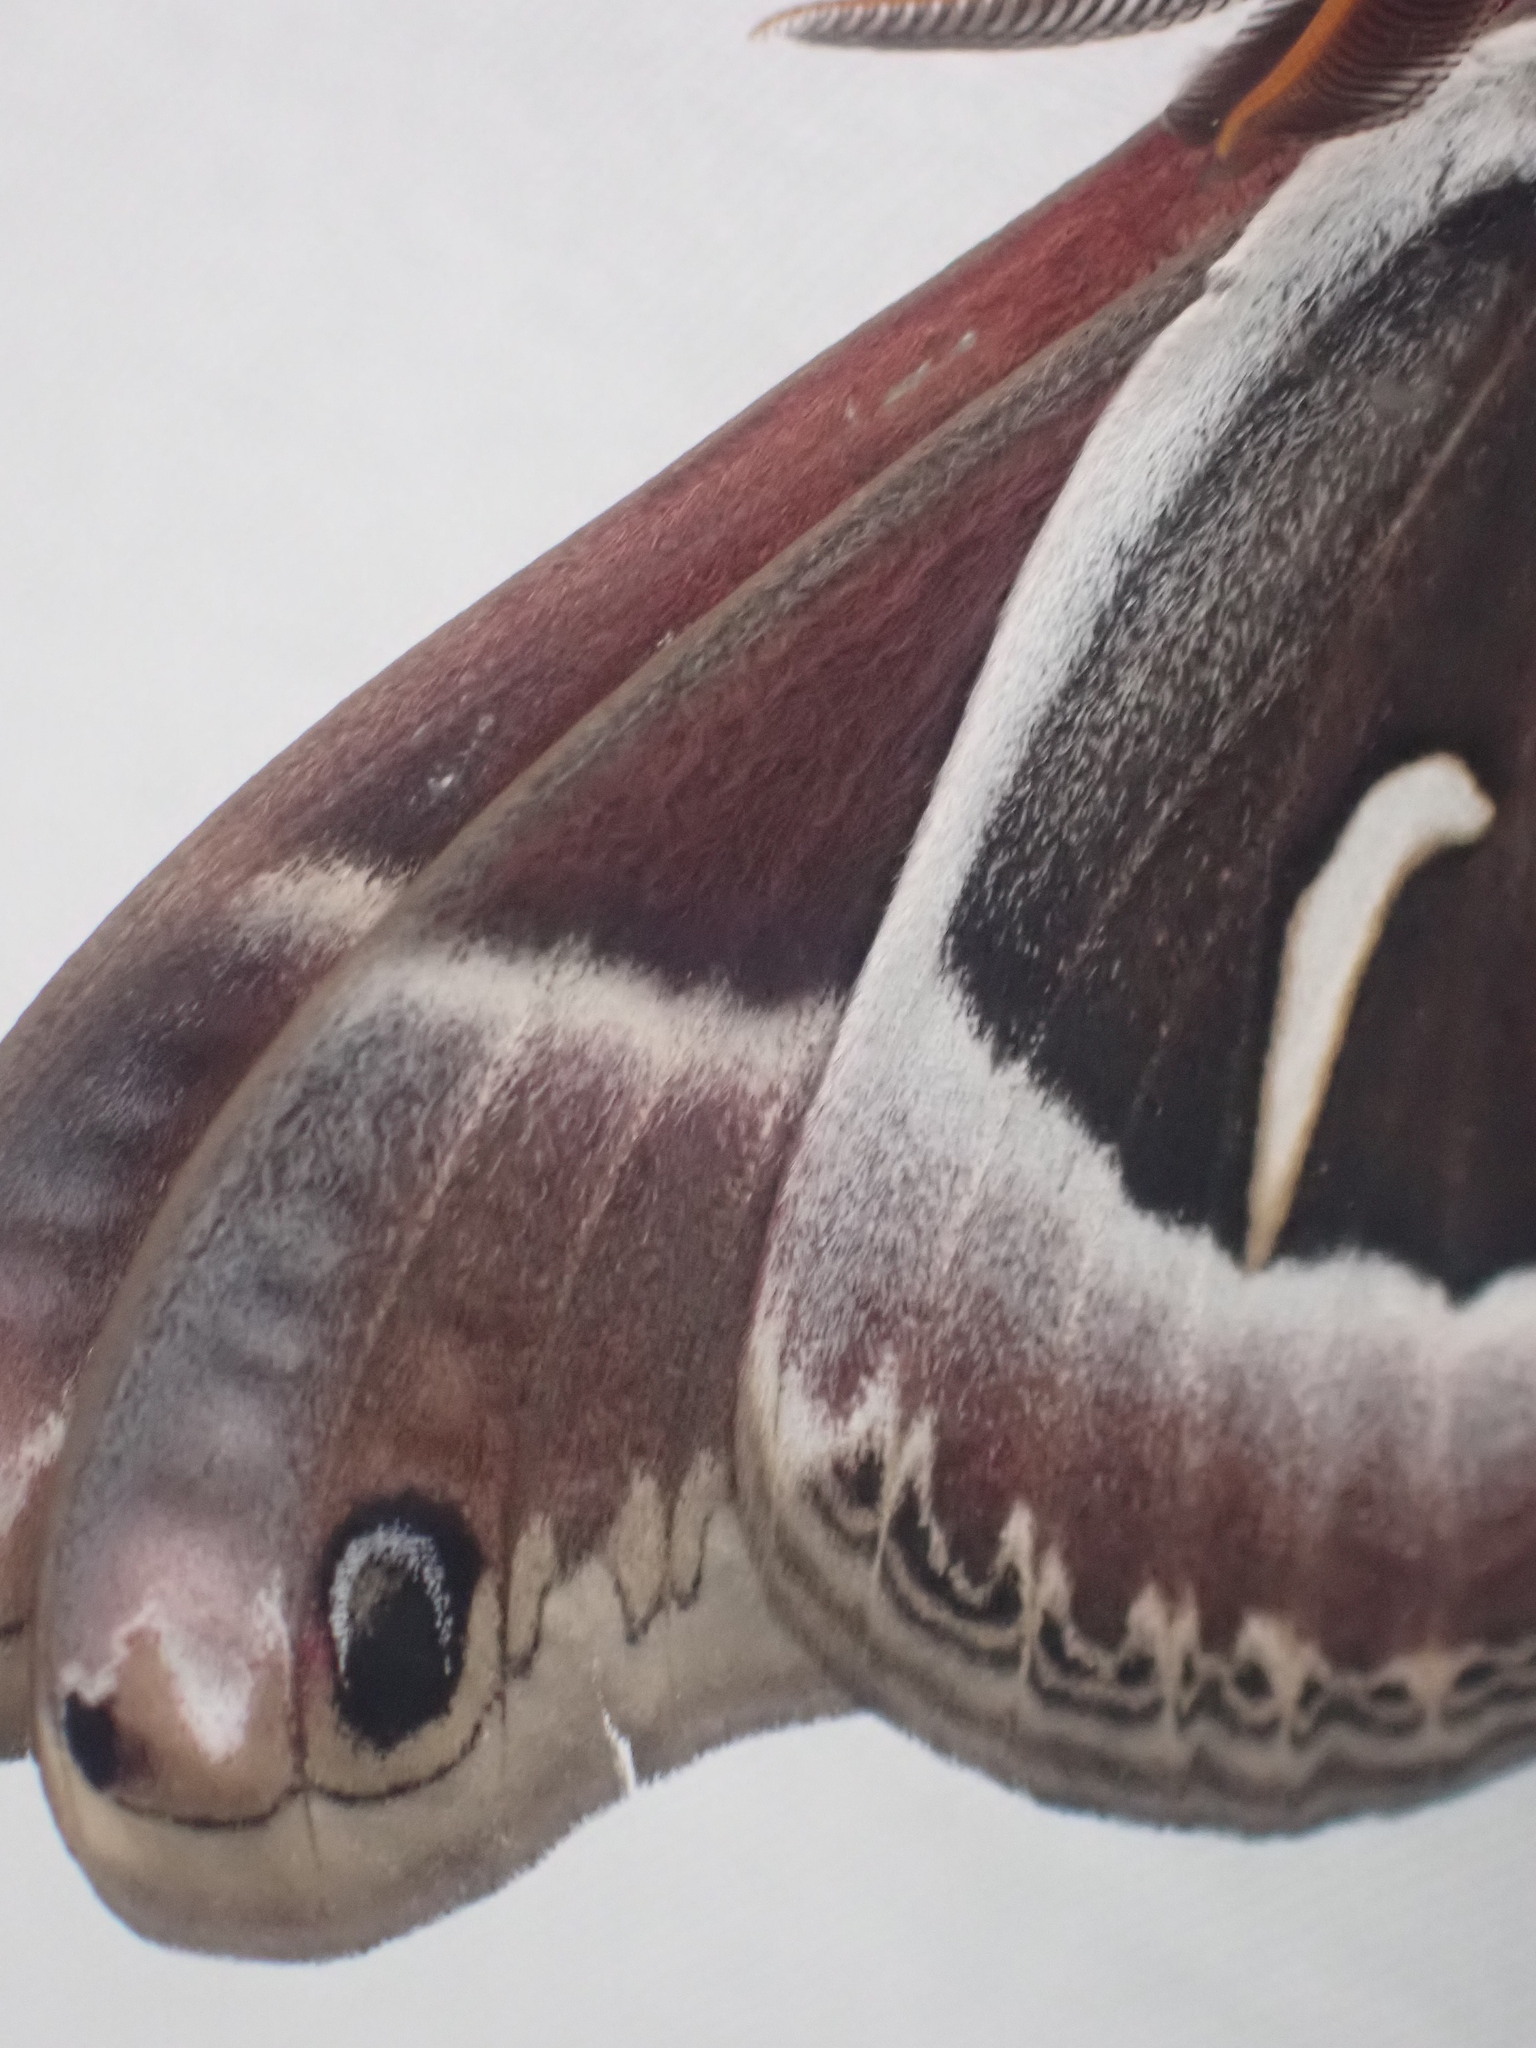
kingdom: Animalia
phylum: Arthropoda
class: Insecta
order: Lepidoptera
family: Saturniidae
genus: Hyalophora
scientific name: Hyalophora euryalus
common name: Ceanothus silkmoth
